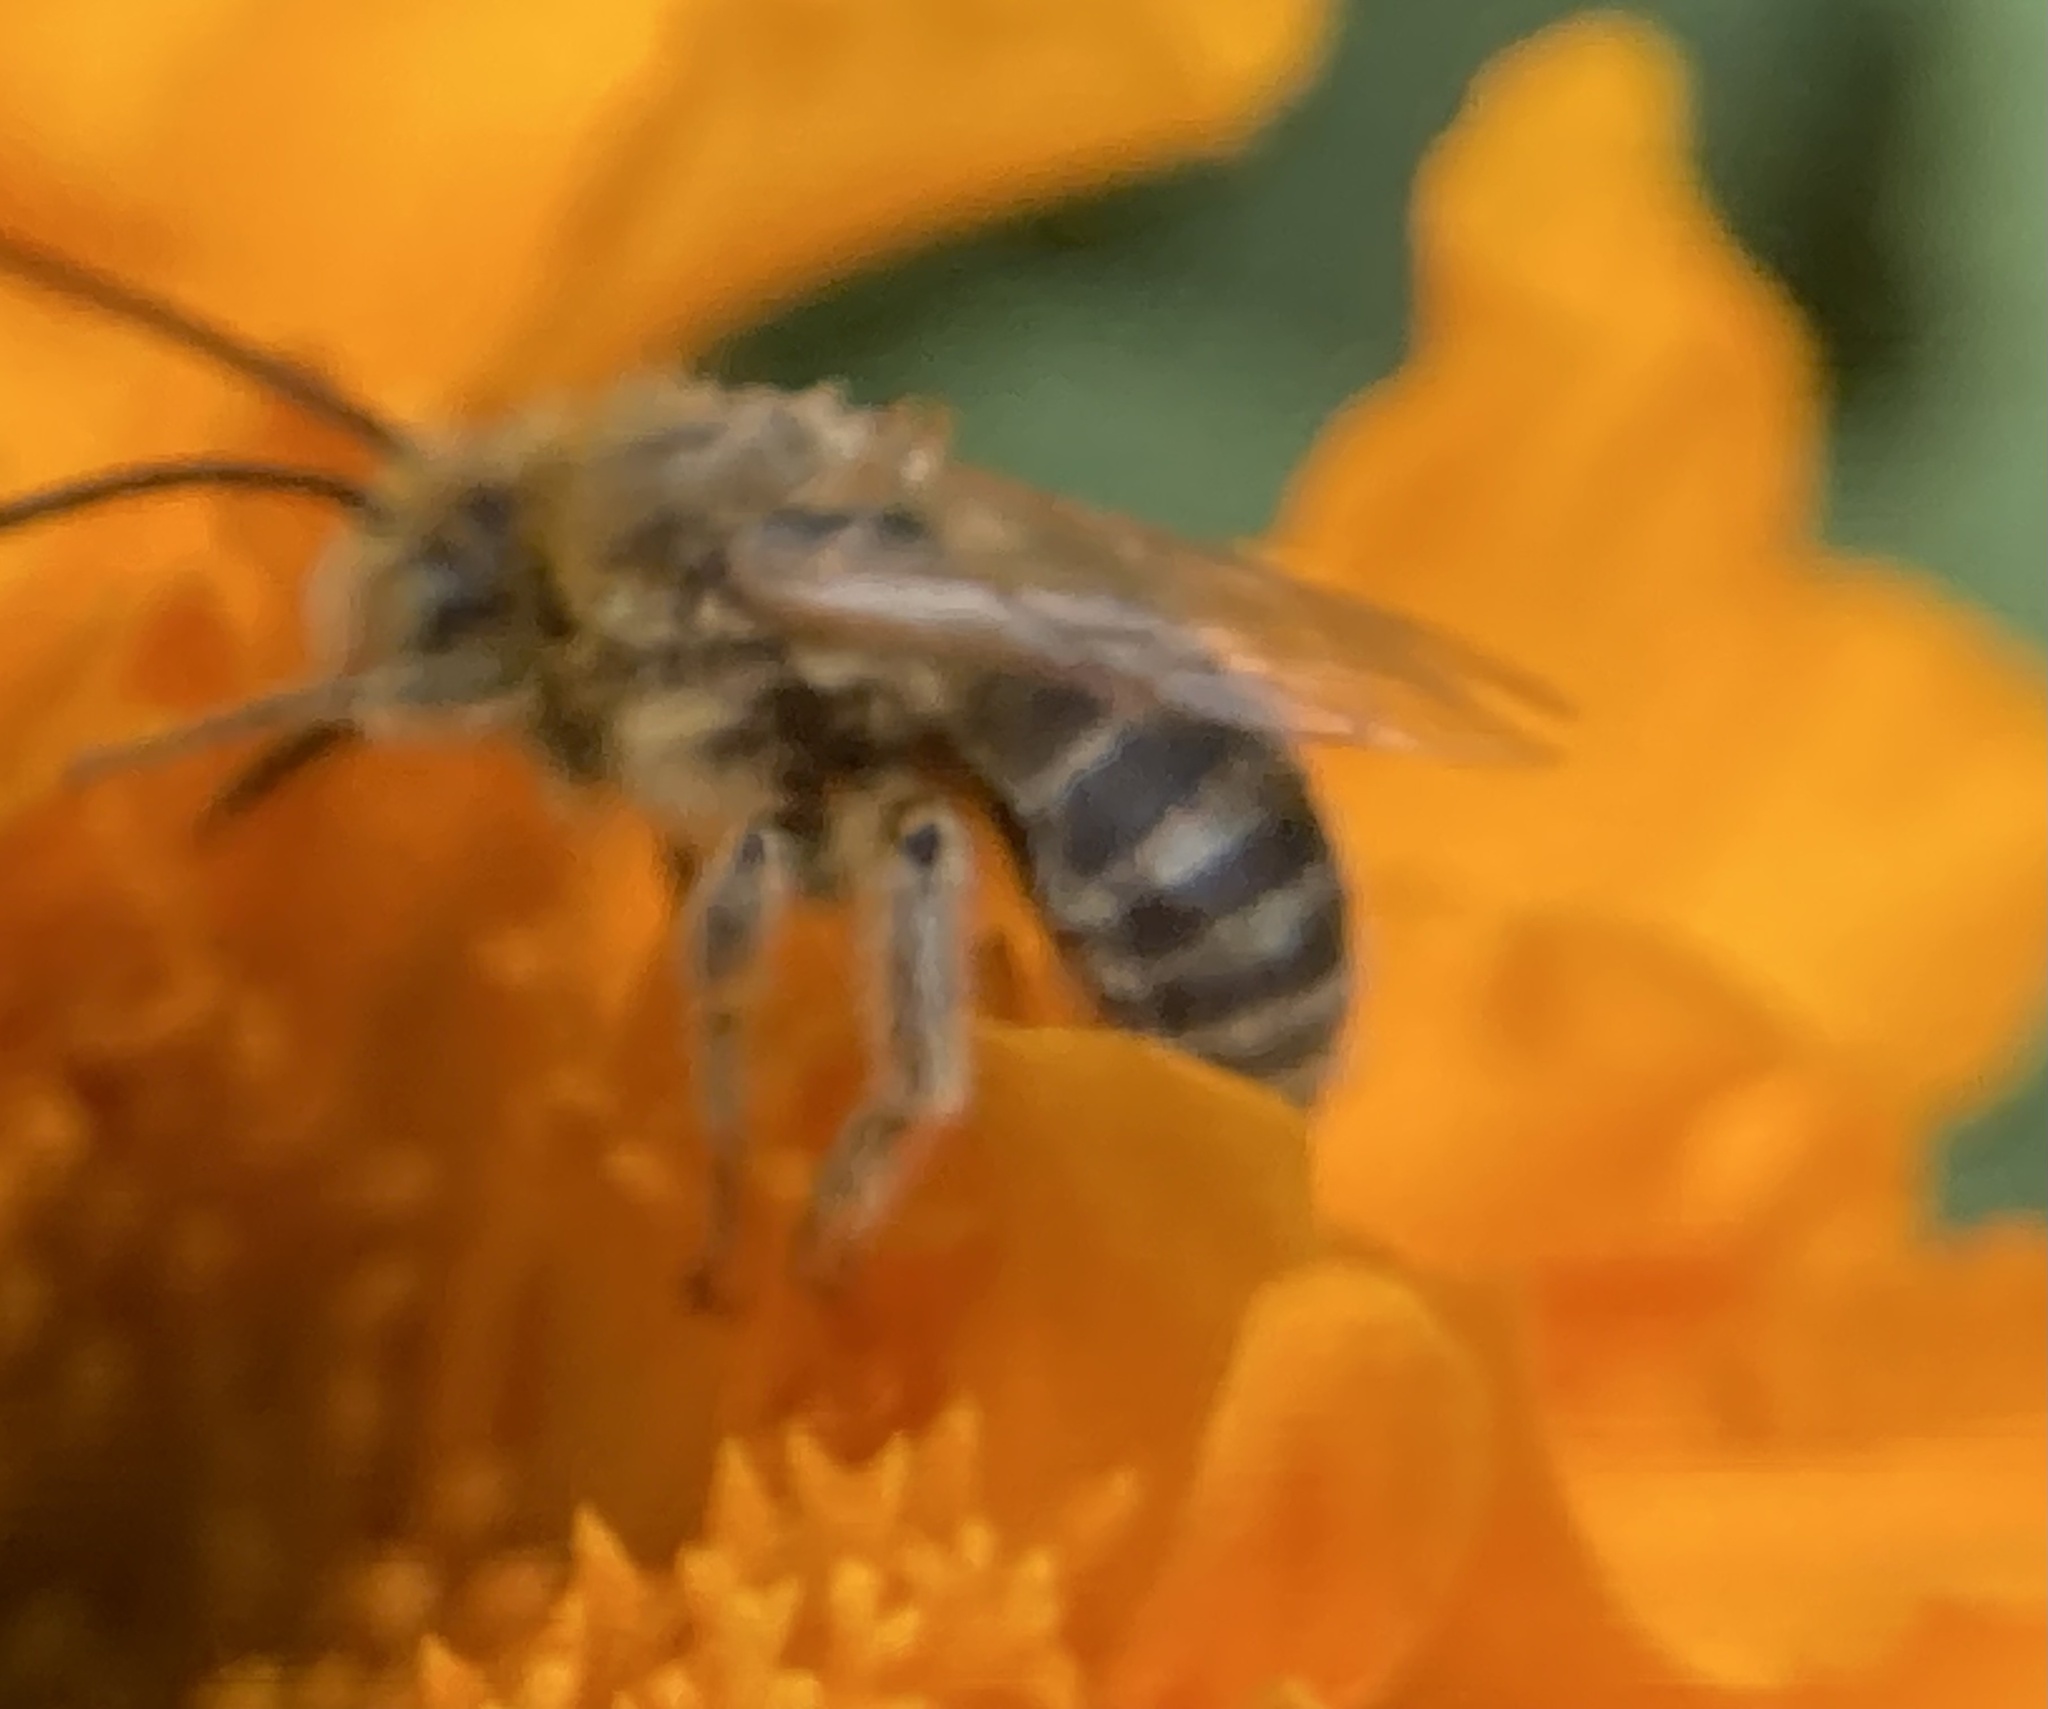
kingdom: Animalia
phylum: Arthropoda
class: Insecta
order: Hymenoptera
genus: Eumelissodes
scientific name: Eumelissodes
